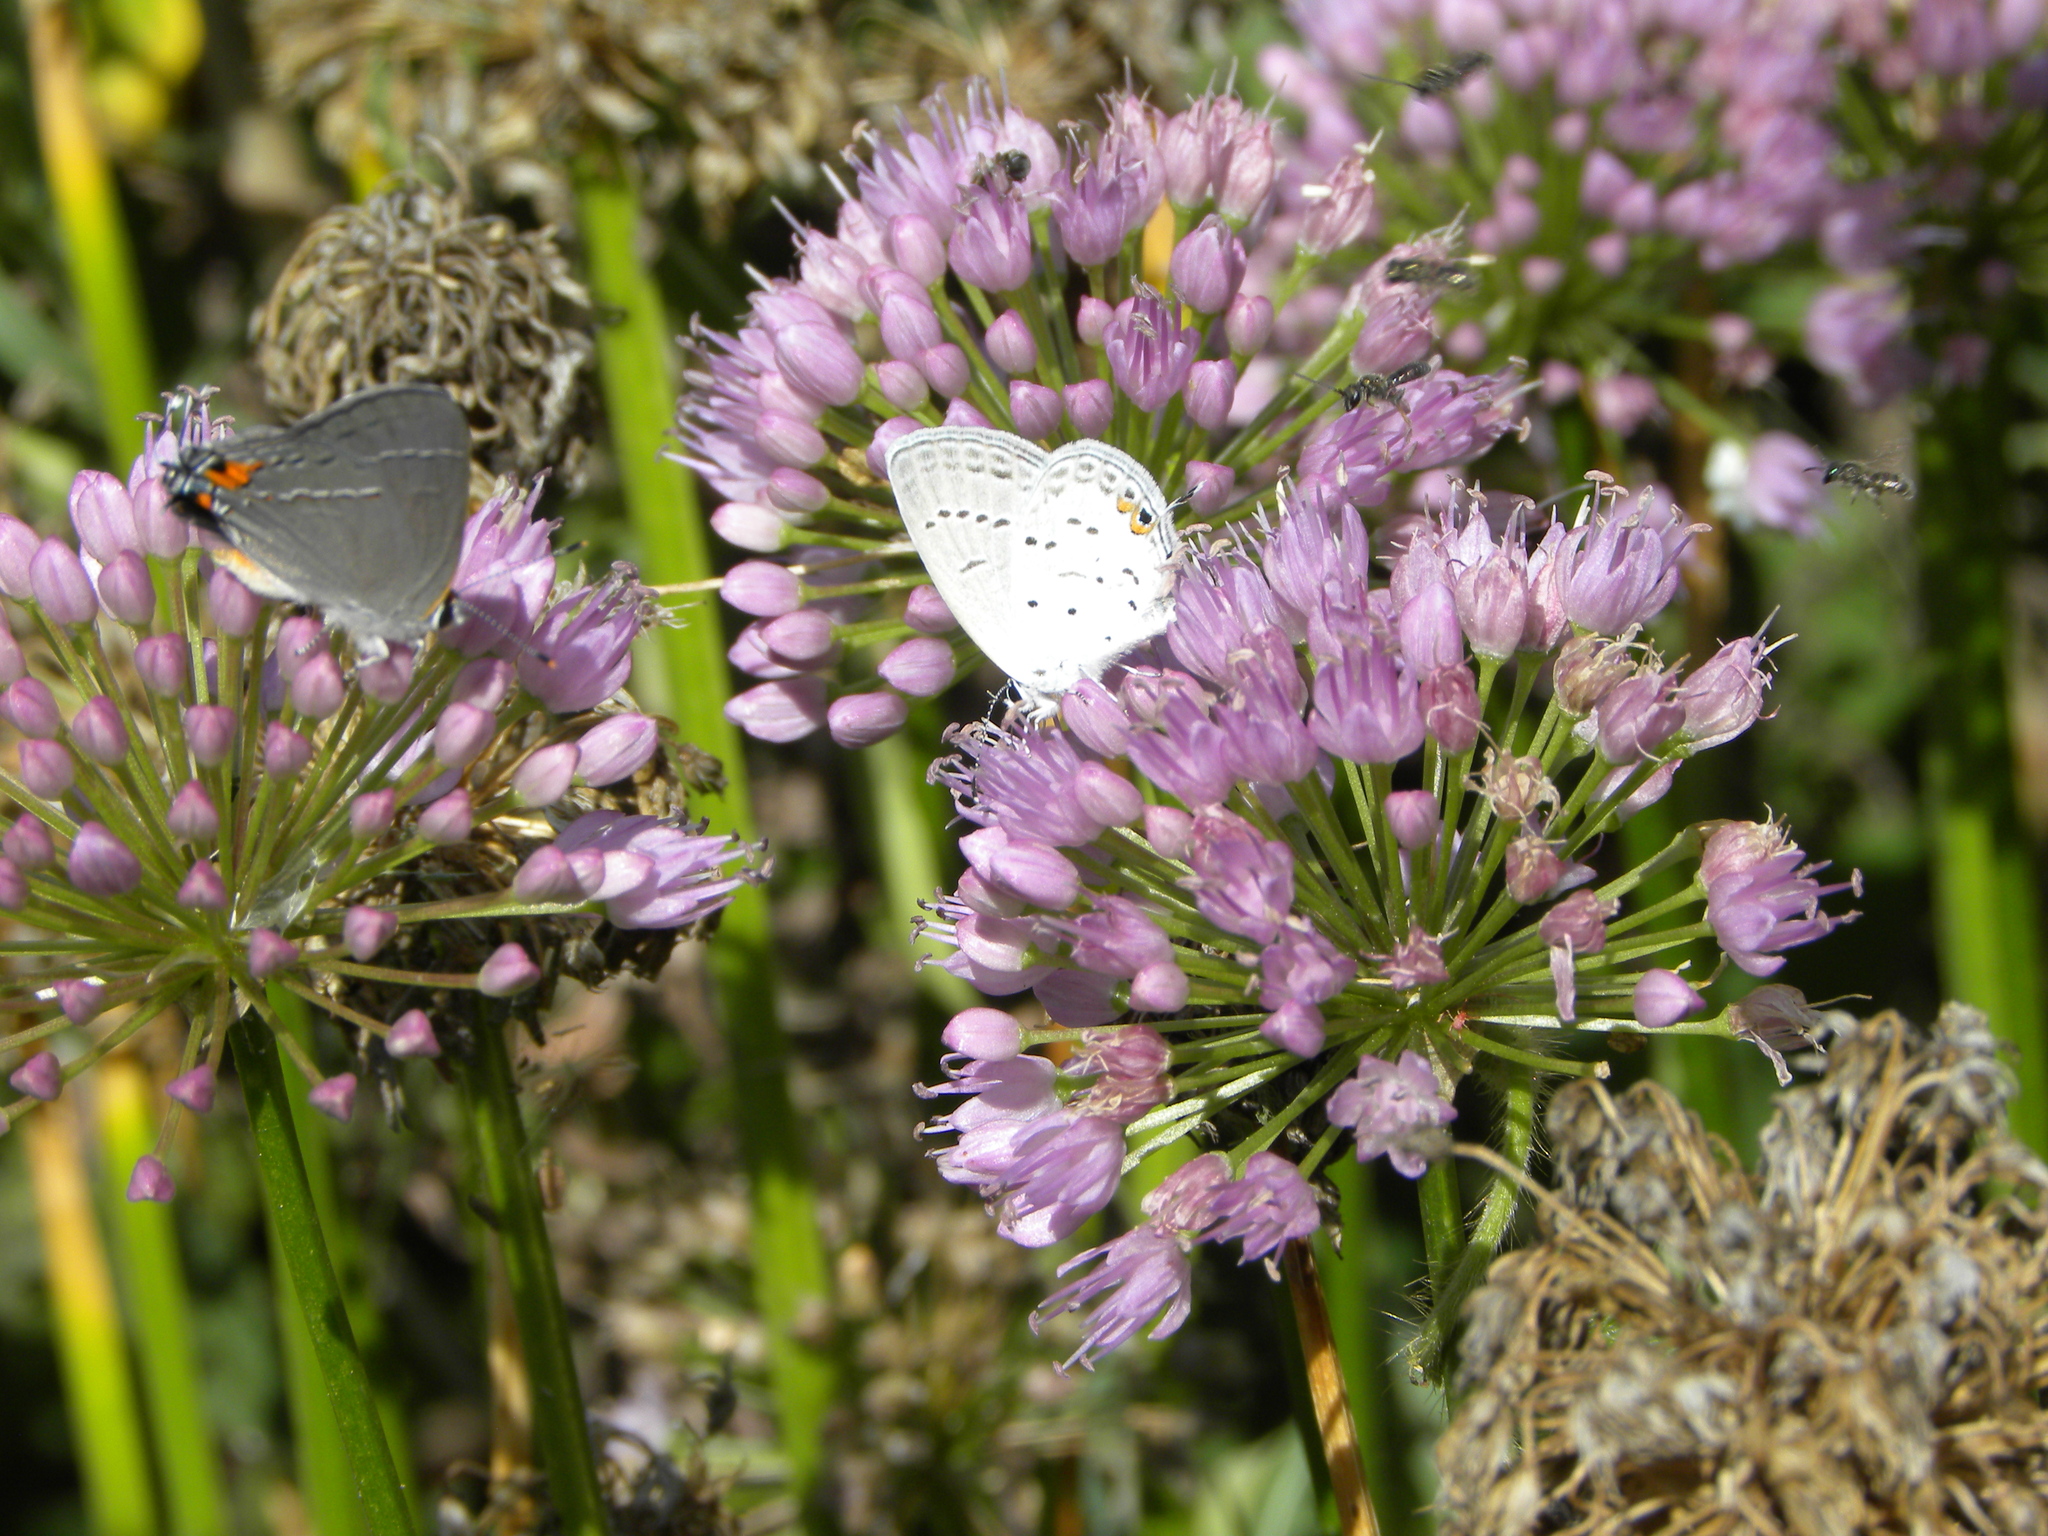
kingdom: Animalia
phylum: Arthropoda
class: Insecta
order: Lepidoptera
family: Lycaenidae
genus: Strymon
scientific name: Strymon melinus
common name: Gray hairstreak
